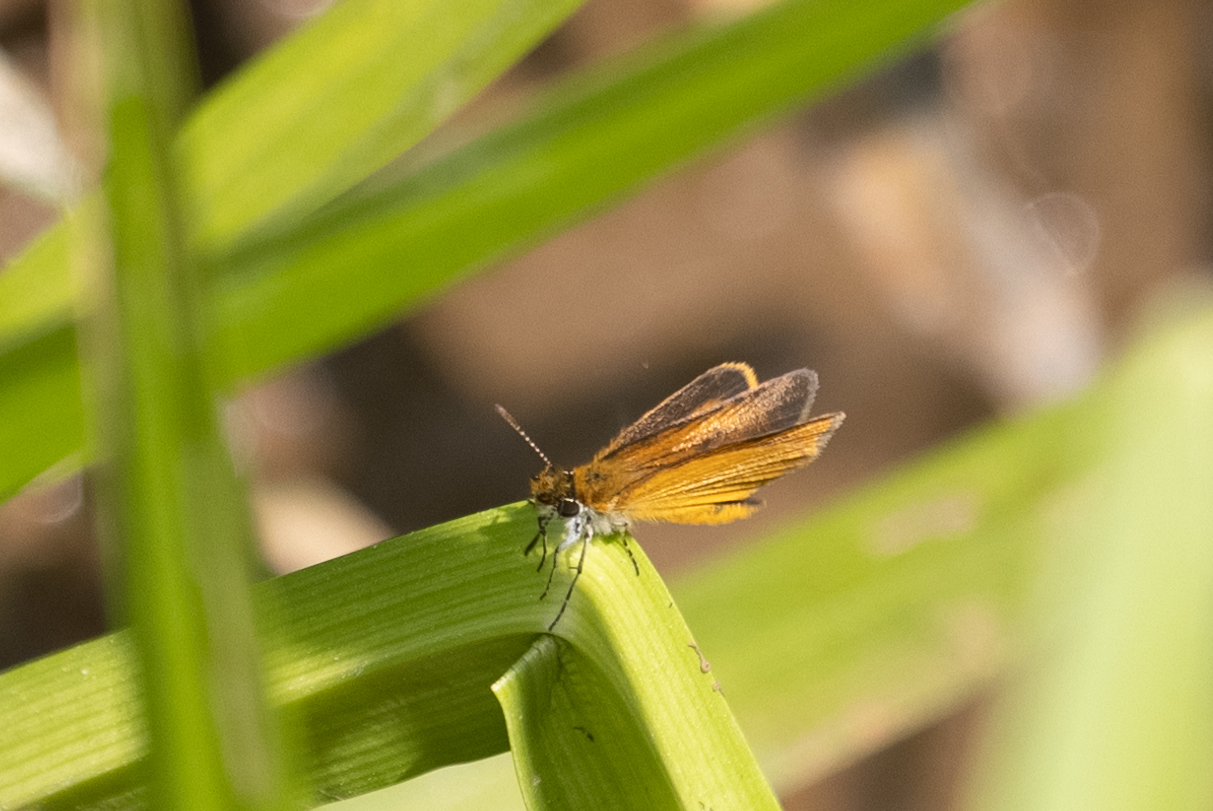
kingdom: Animalia
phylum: Arthropoda
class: Insecta
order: Lepidoptera
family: Hesperiidae
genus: Ancyloxypha
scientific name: Ancyloxypha numitor
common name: Least skipper
